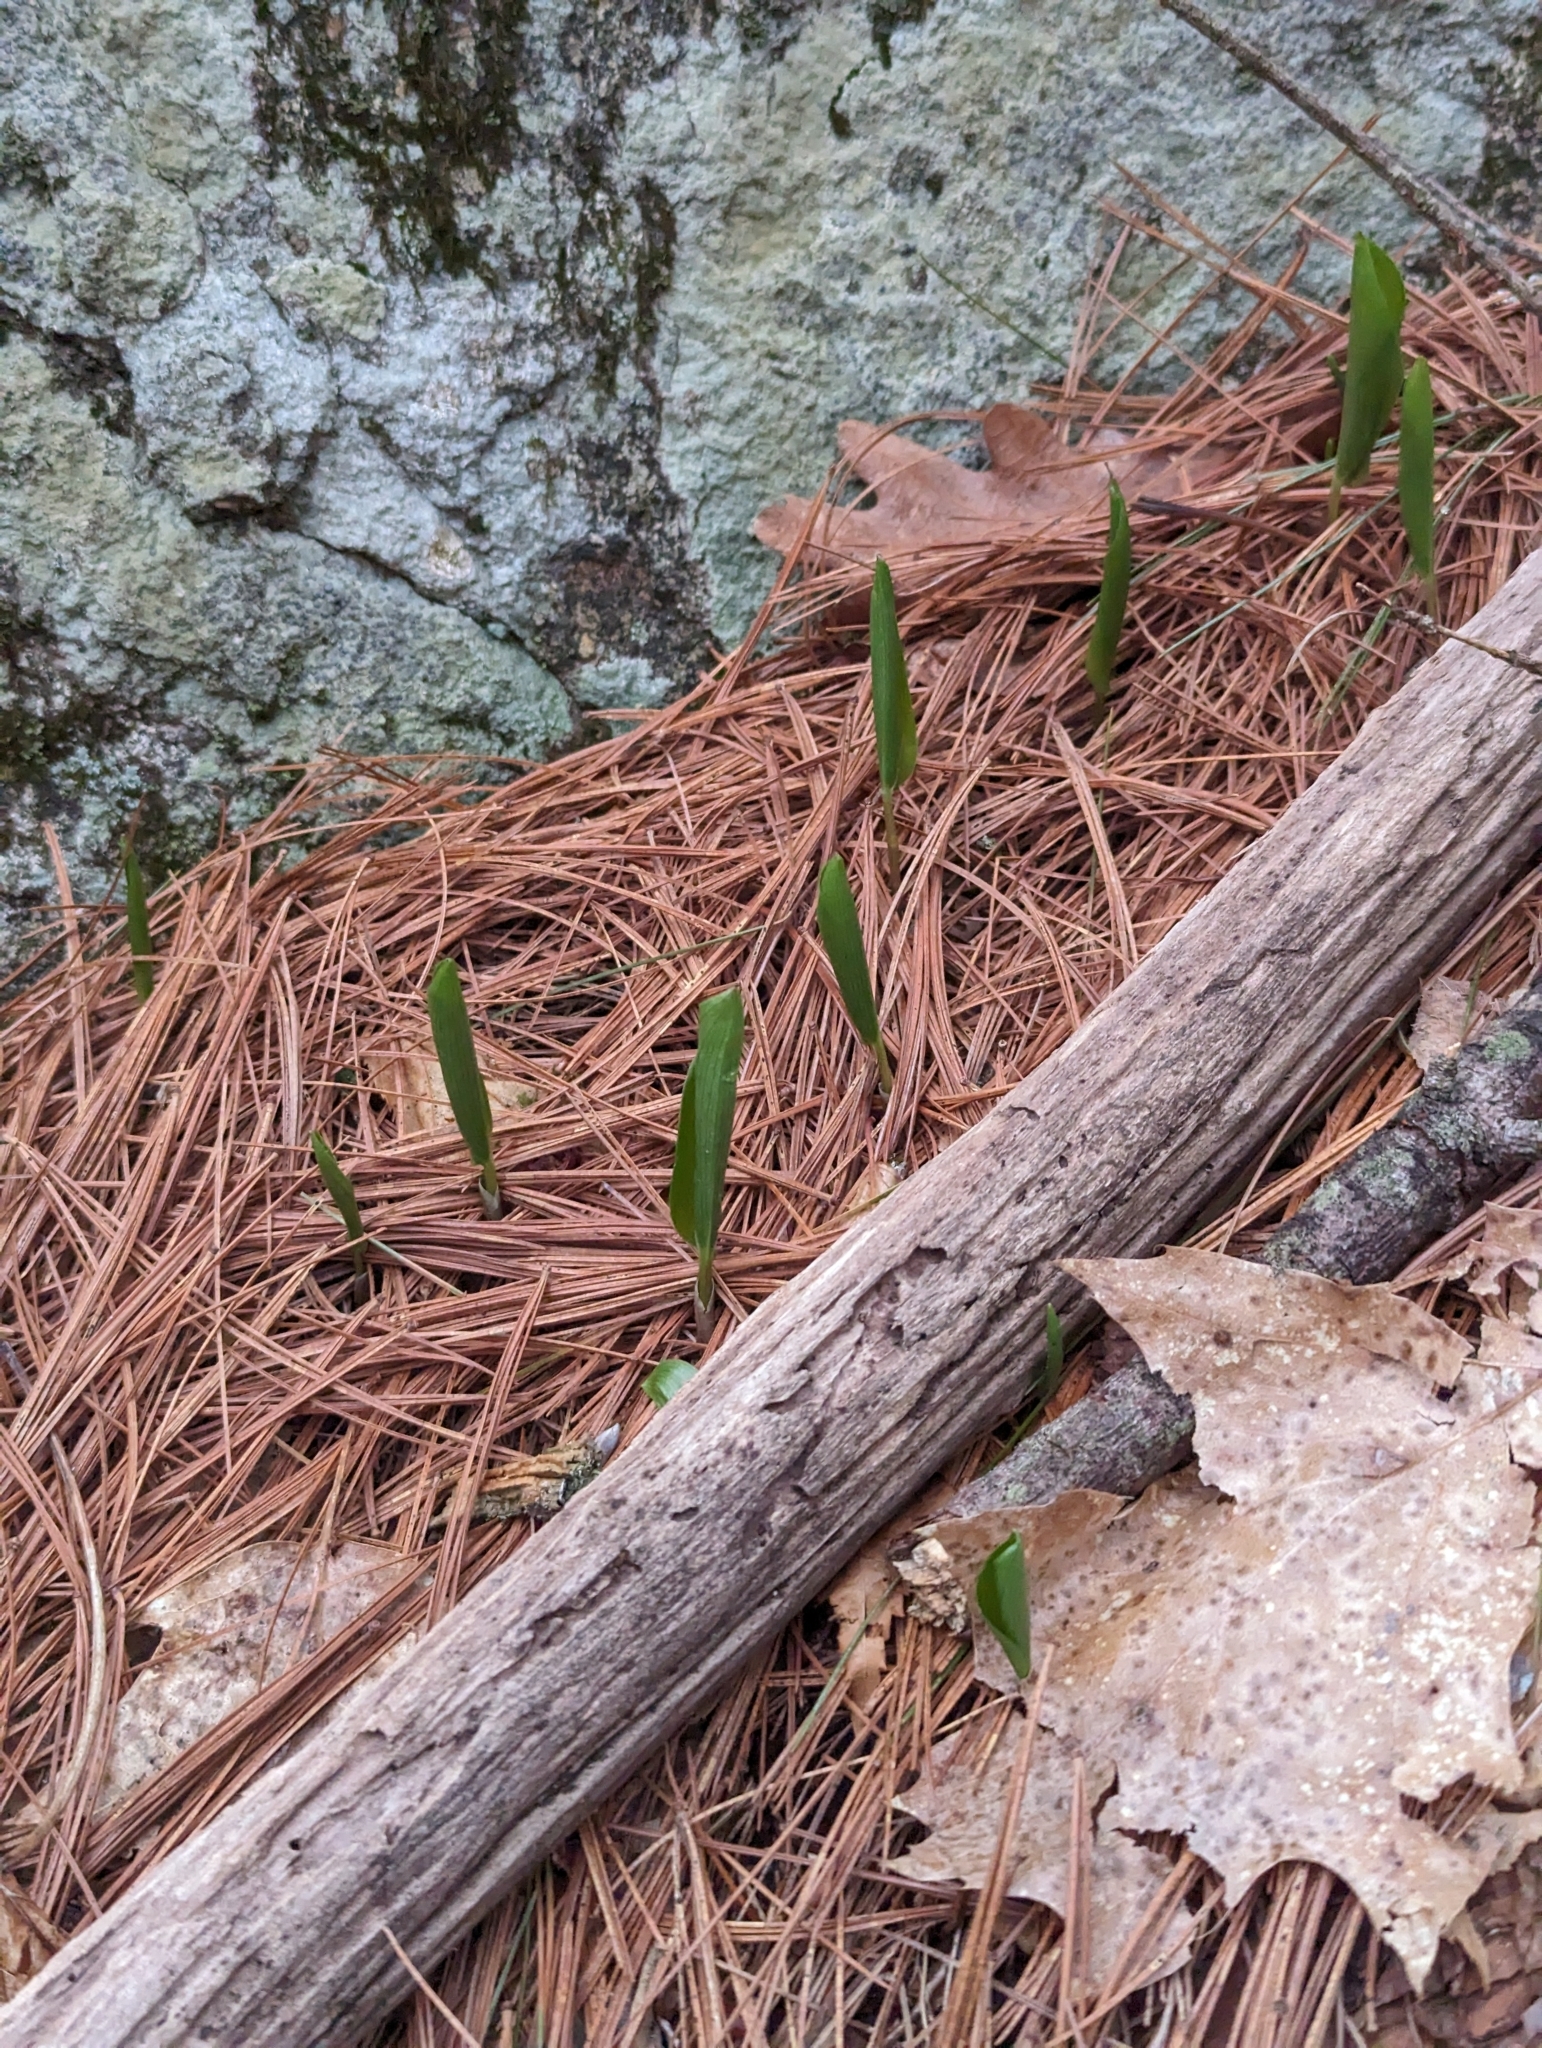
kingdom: Plantae
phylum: Tracheophyta
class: Liliopsida
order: Asparagales
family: Asparagaceae
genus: Maianthemum
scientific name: Maianthemum canadense
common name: False lily-of-the-valley
